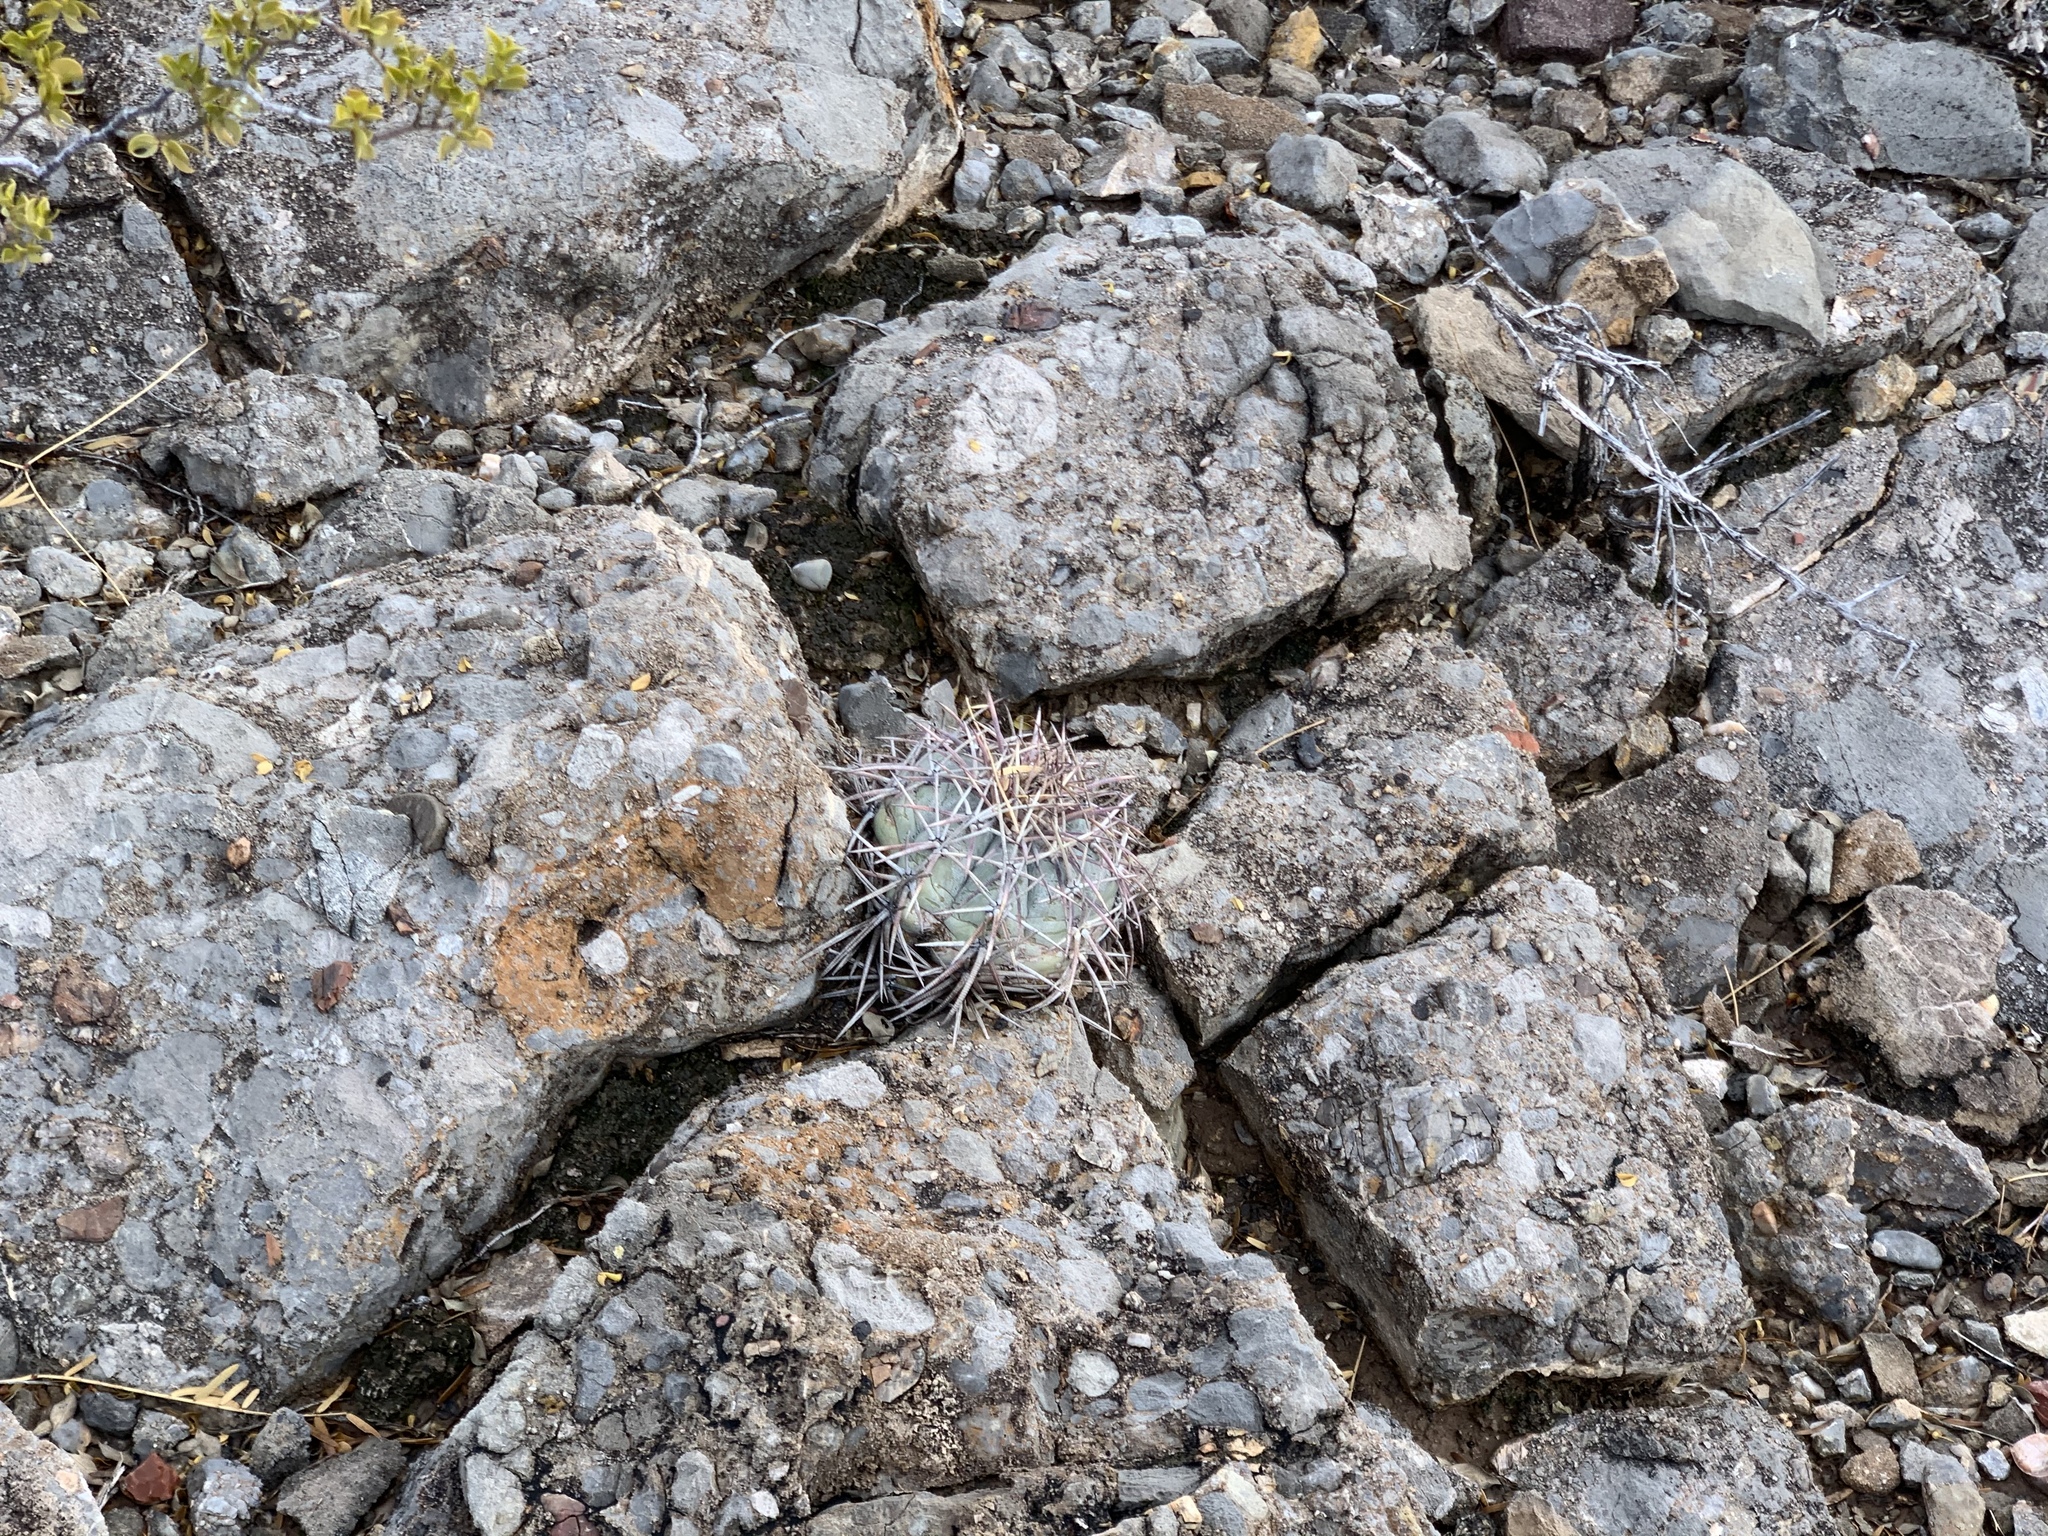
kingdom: Plantae
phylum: Tracheophyta
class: Magnoliopsida
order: Caryophyllales
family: Cactaceae
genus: Echinocactus
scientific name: Echinocactus horizonthalonius
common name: Devilshead
